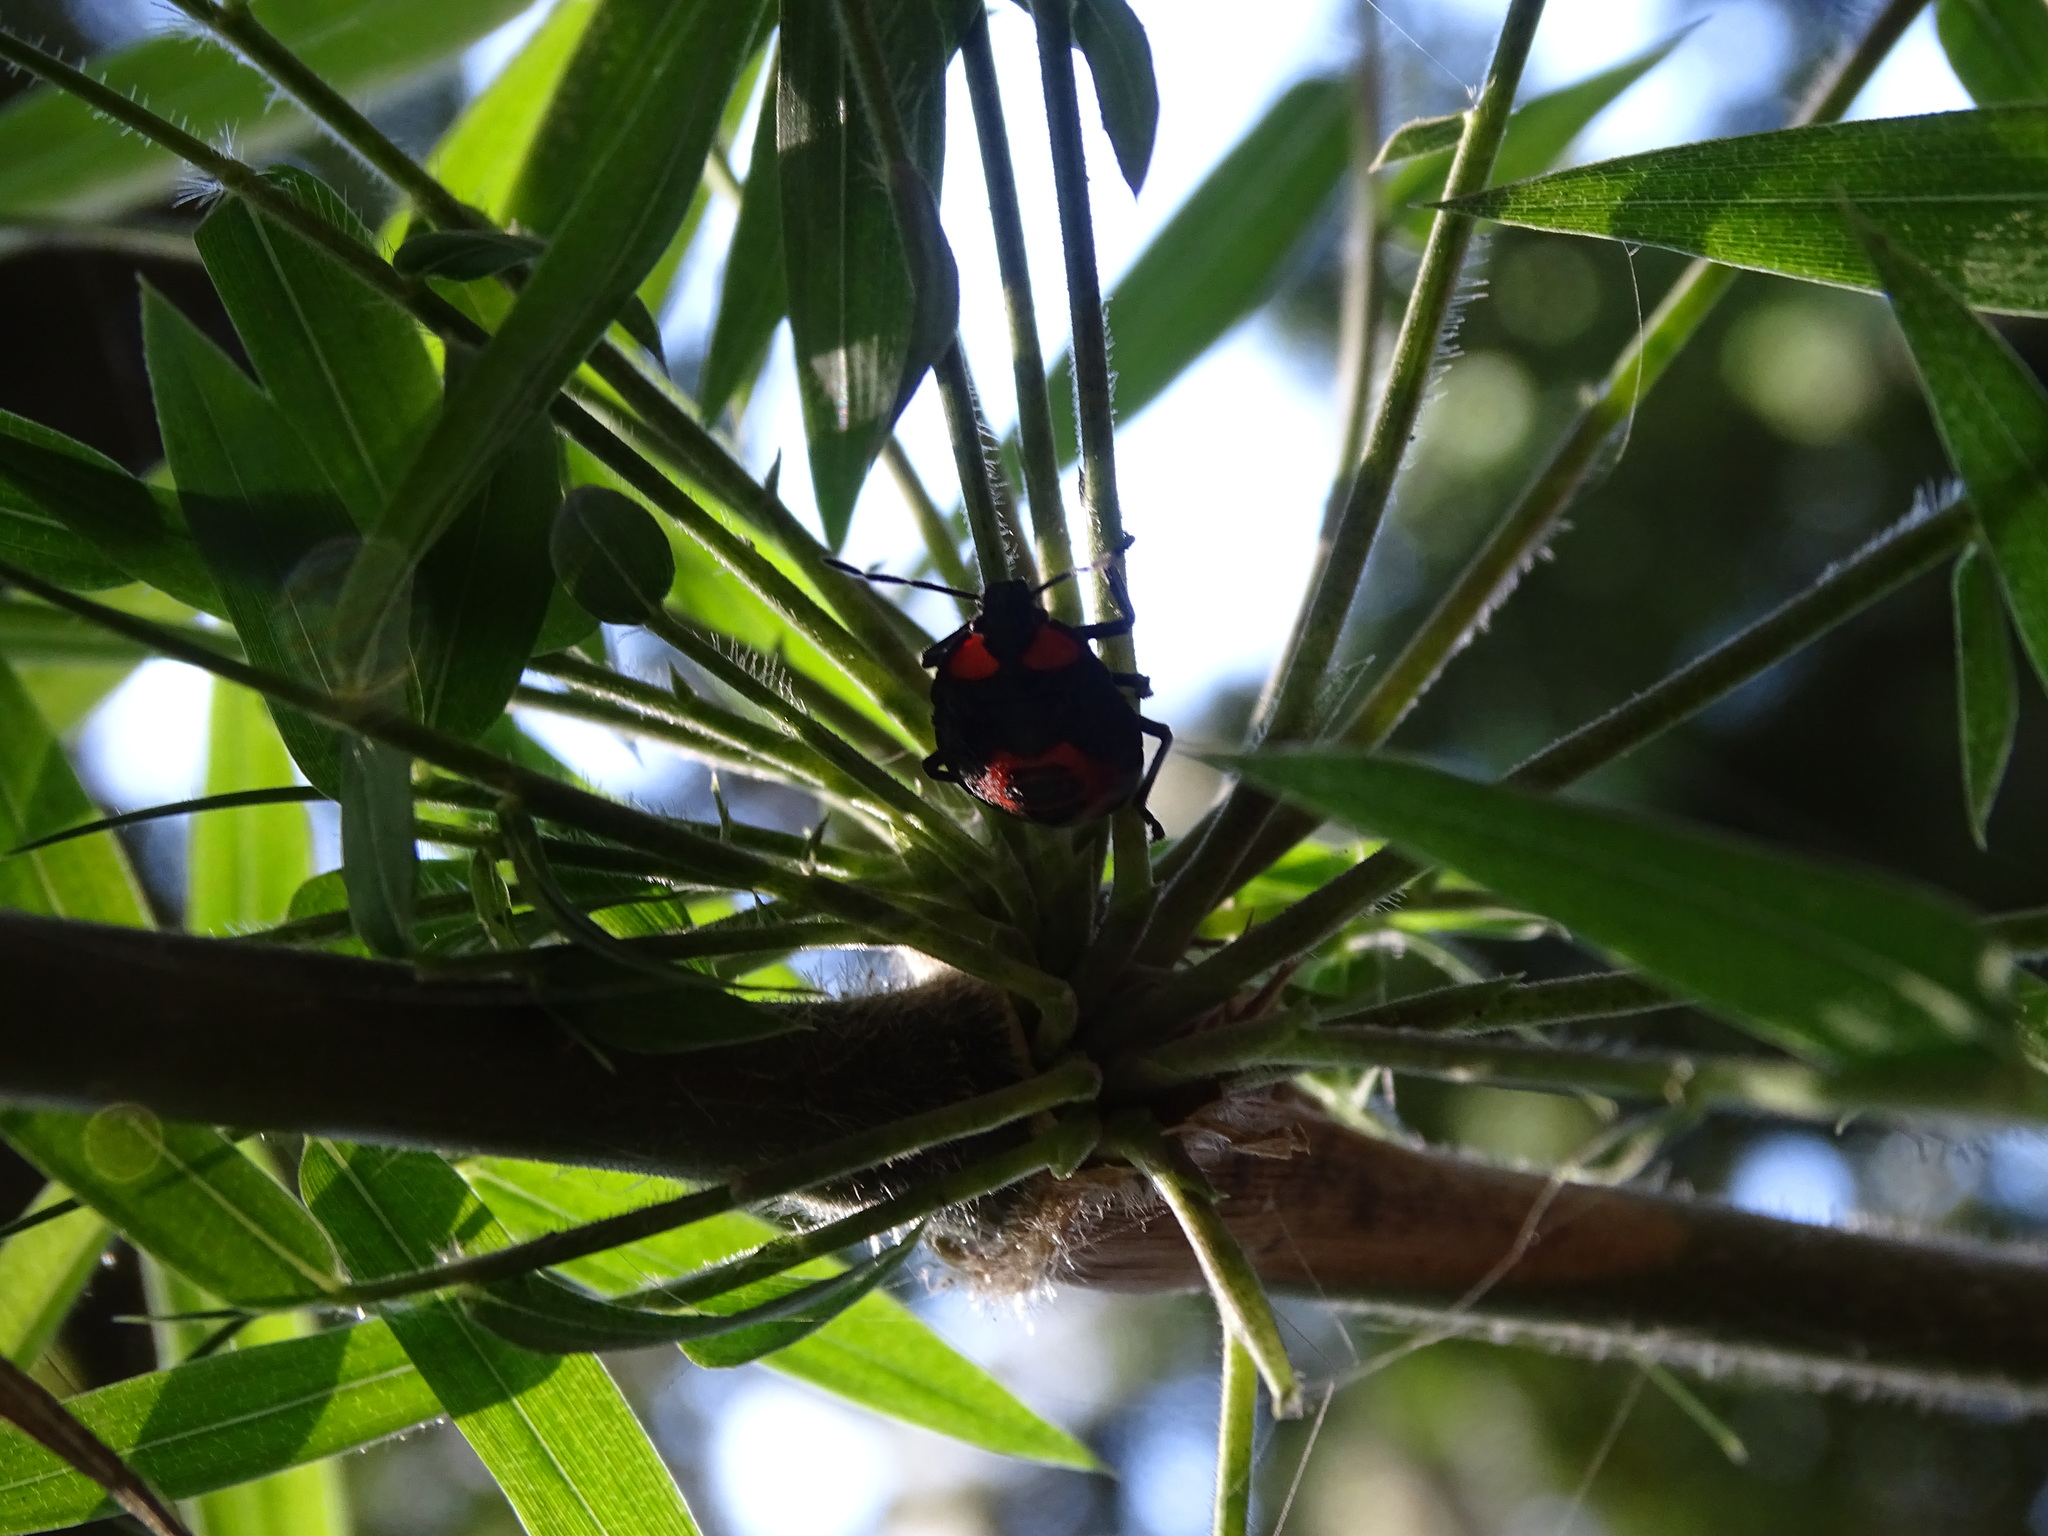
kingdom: Animalia
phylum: Arthropoda
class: Insecta
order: Hemiptera
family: Pentatomidae
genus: Brontocoris
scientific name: Brontocoris
